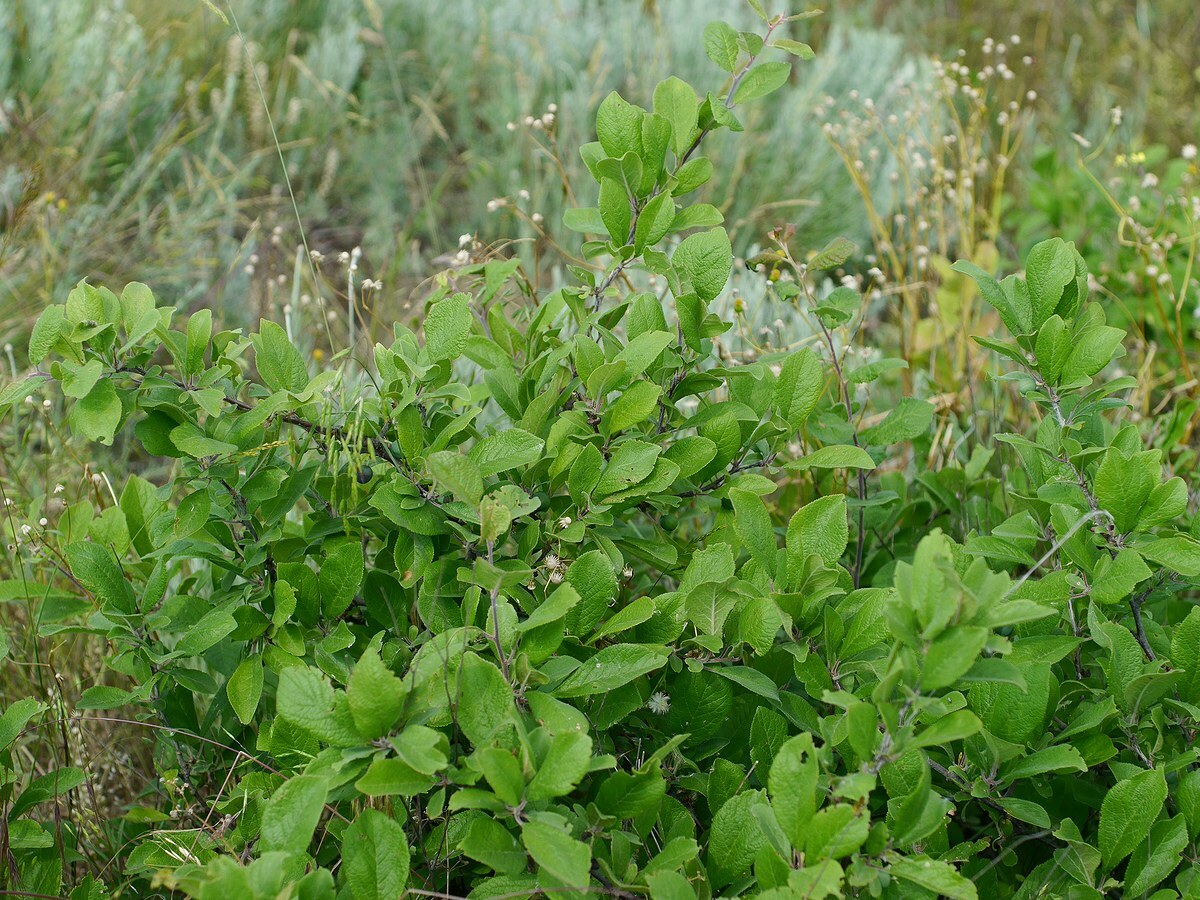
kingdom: Plantae
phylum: Tracheophyta
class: Magnoliopsida
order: Rosales
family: Rosaceae
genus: Prunus
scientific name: Prunus spinosa
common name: Blackthorn
